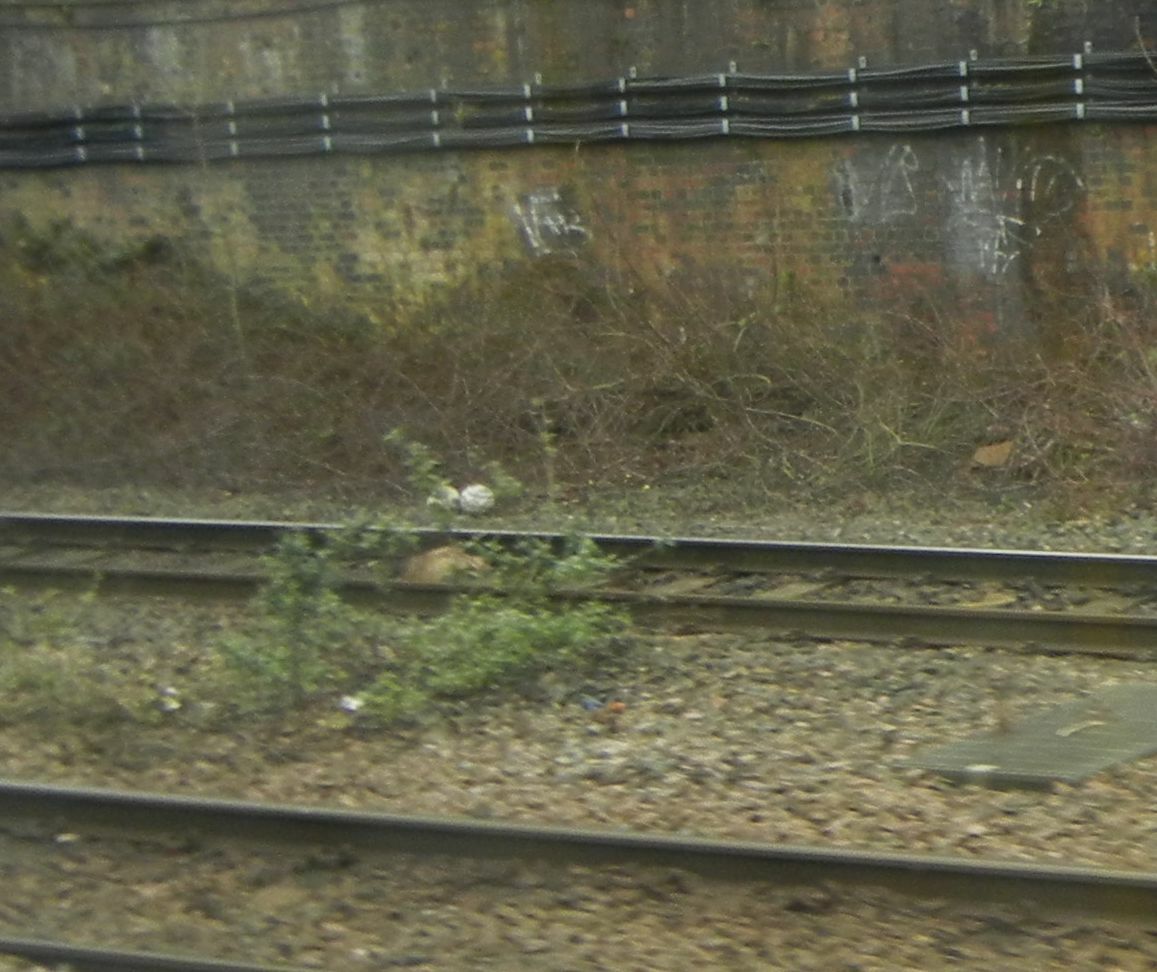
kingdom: Animalia
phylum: Chordata
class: Mammalia
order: Carnivora
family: Mustelidae
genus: Meles
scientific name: Meles meles
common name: Eurasian badger
